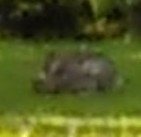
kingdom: Animalia
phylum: Chordata
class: Mammalia
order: Lagomorpha
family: Leporidae
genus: Oryctolagus
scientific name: Oryctolagus cuniculus
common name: European rabbit
